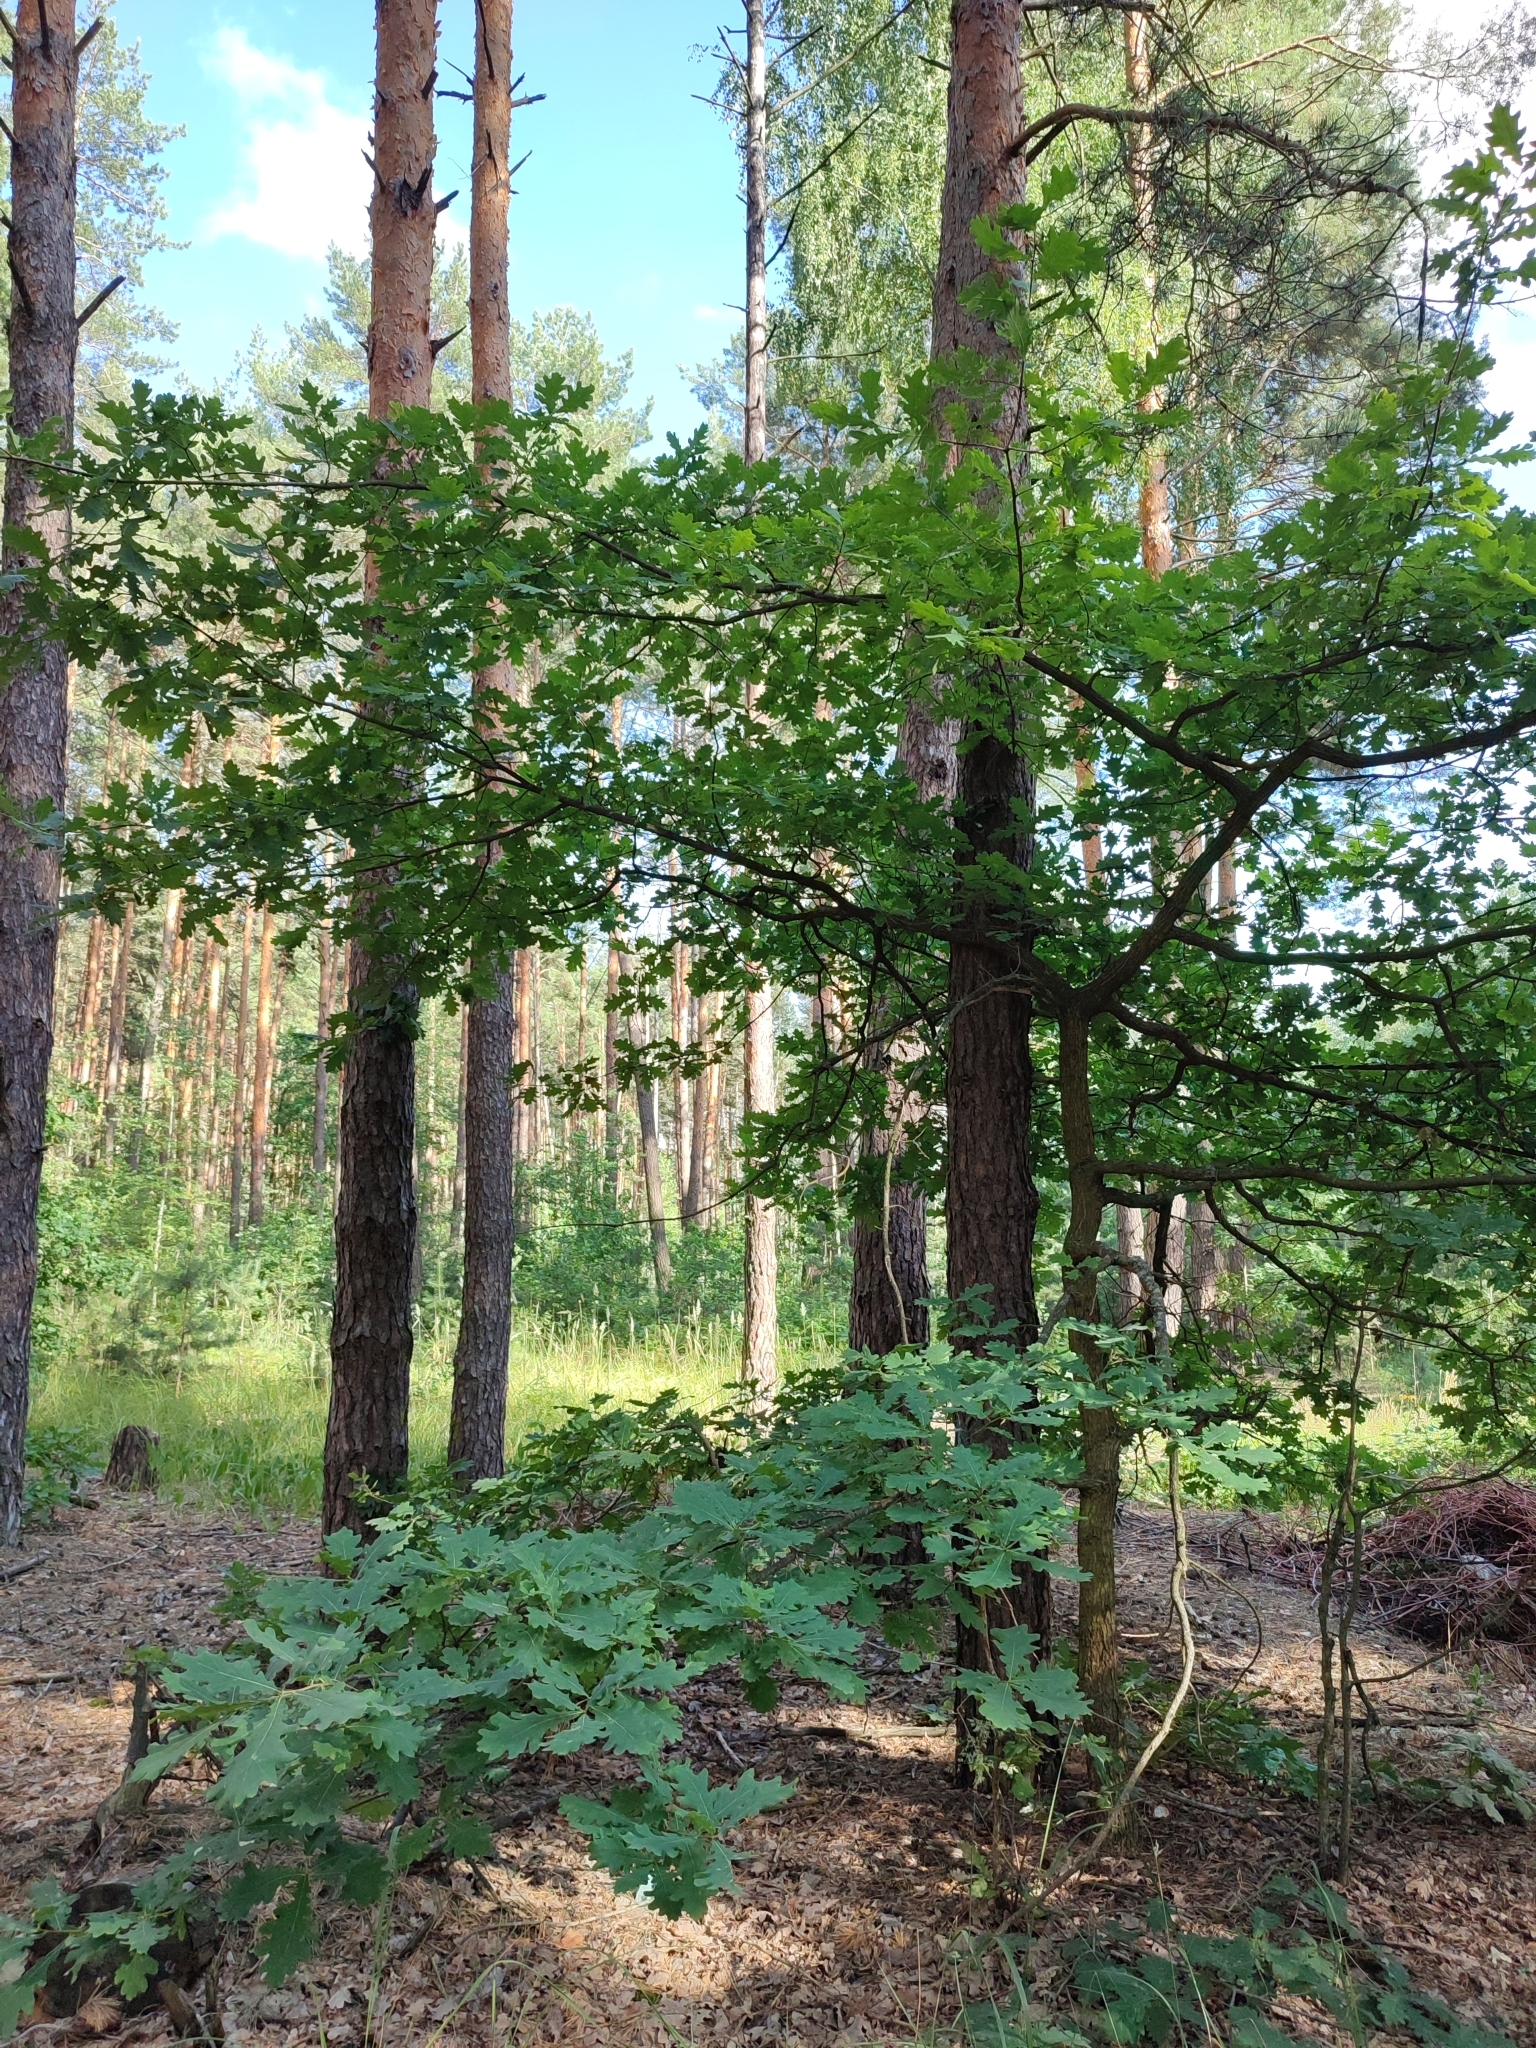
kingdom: Plantae
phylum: Tracheophyta
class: Magnoliopsida
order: Fagales
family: Fagaceae
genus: Quercus
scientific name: Quercus robur
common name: Pedunculate oak
